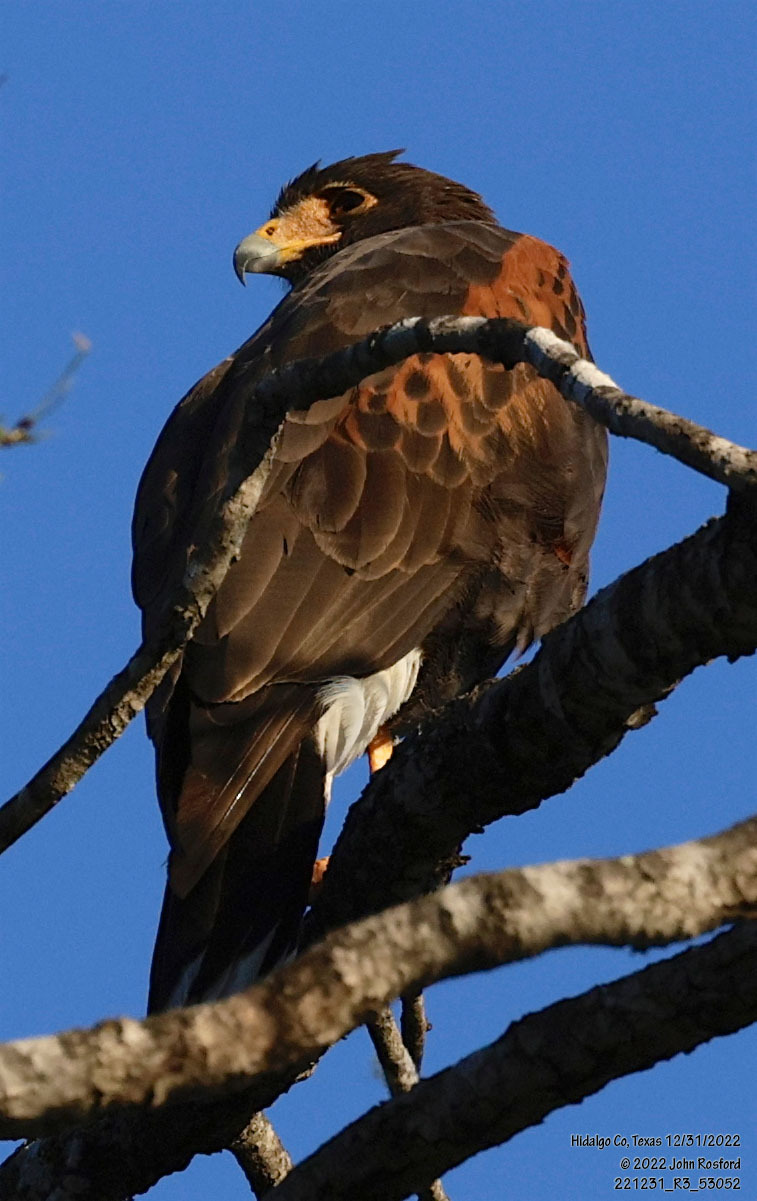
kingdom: Animalia
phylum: Chordata
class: Aves
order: Accipitriformes
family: Accipitridae
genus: Parabuteo
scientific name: Parabuteo unicinctus
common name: Harris's hawk
